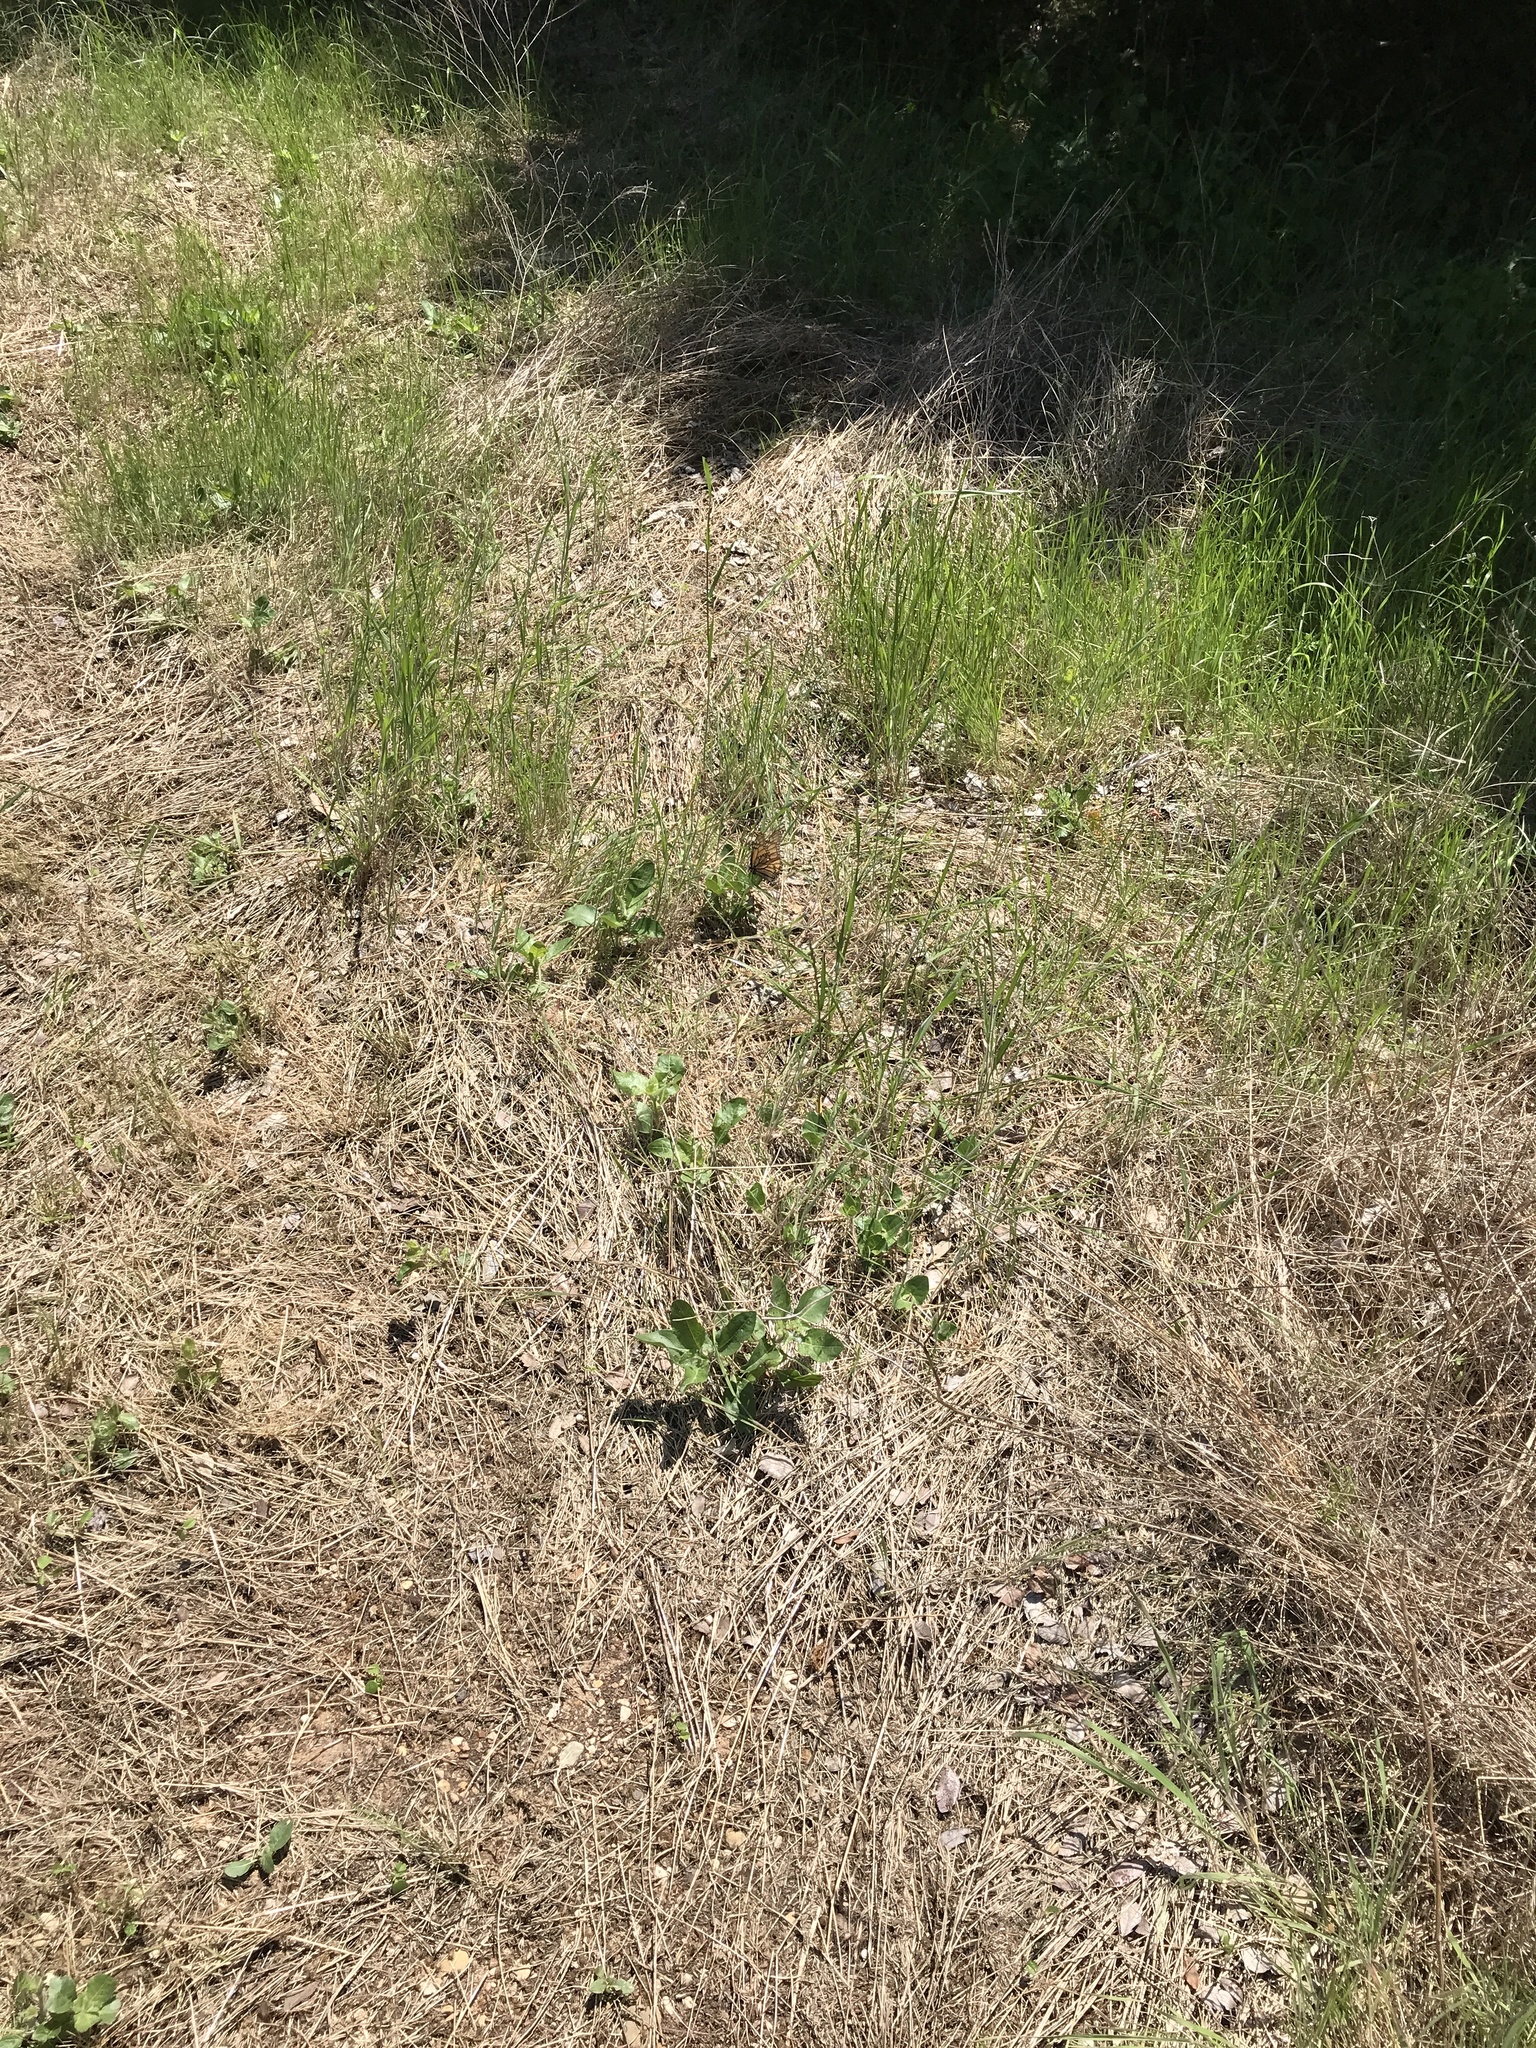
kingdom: Animalia
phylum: Arthropoda
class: Insecta
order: Lepidoptera
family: Nymphalidae
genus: Danaus
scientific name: Danaus plexippus
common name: Monarch
